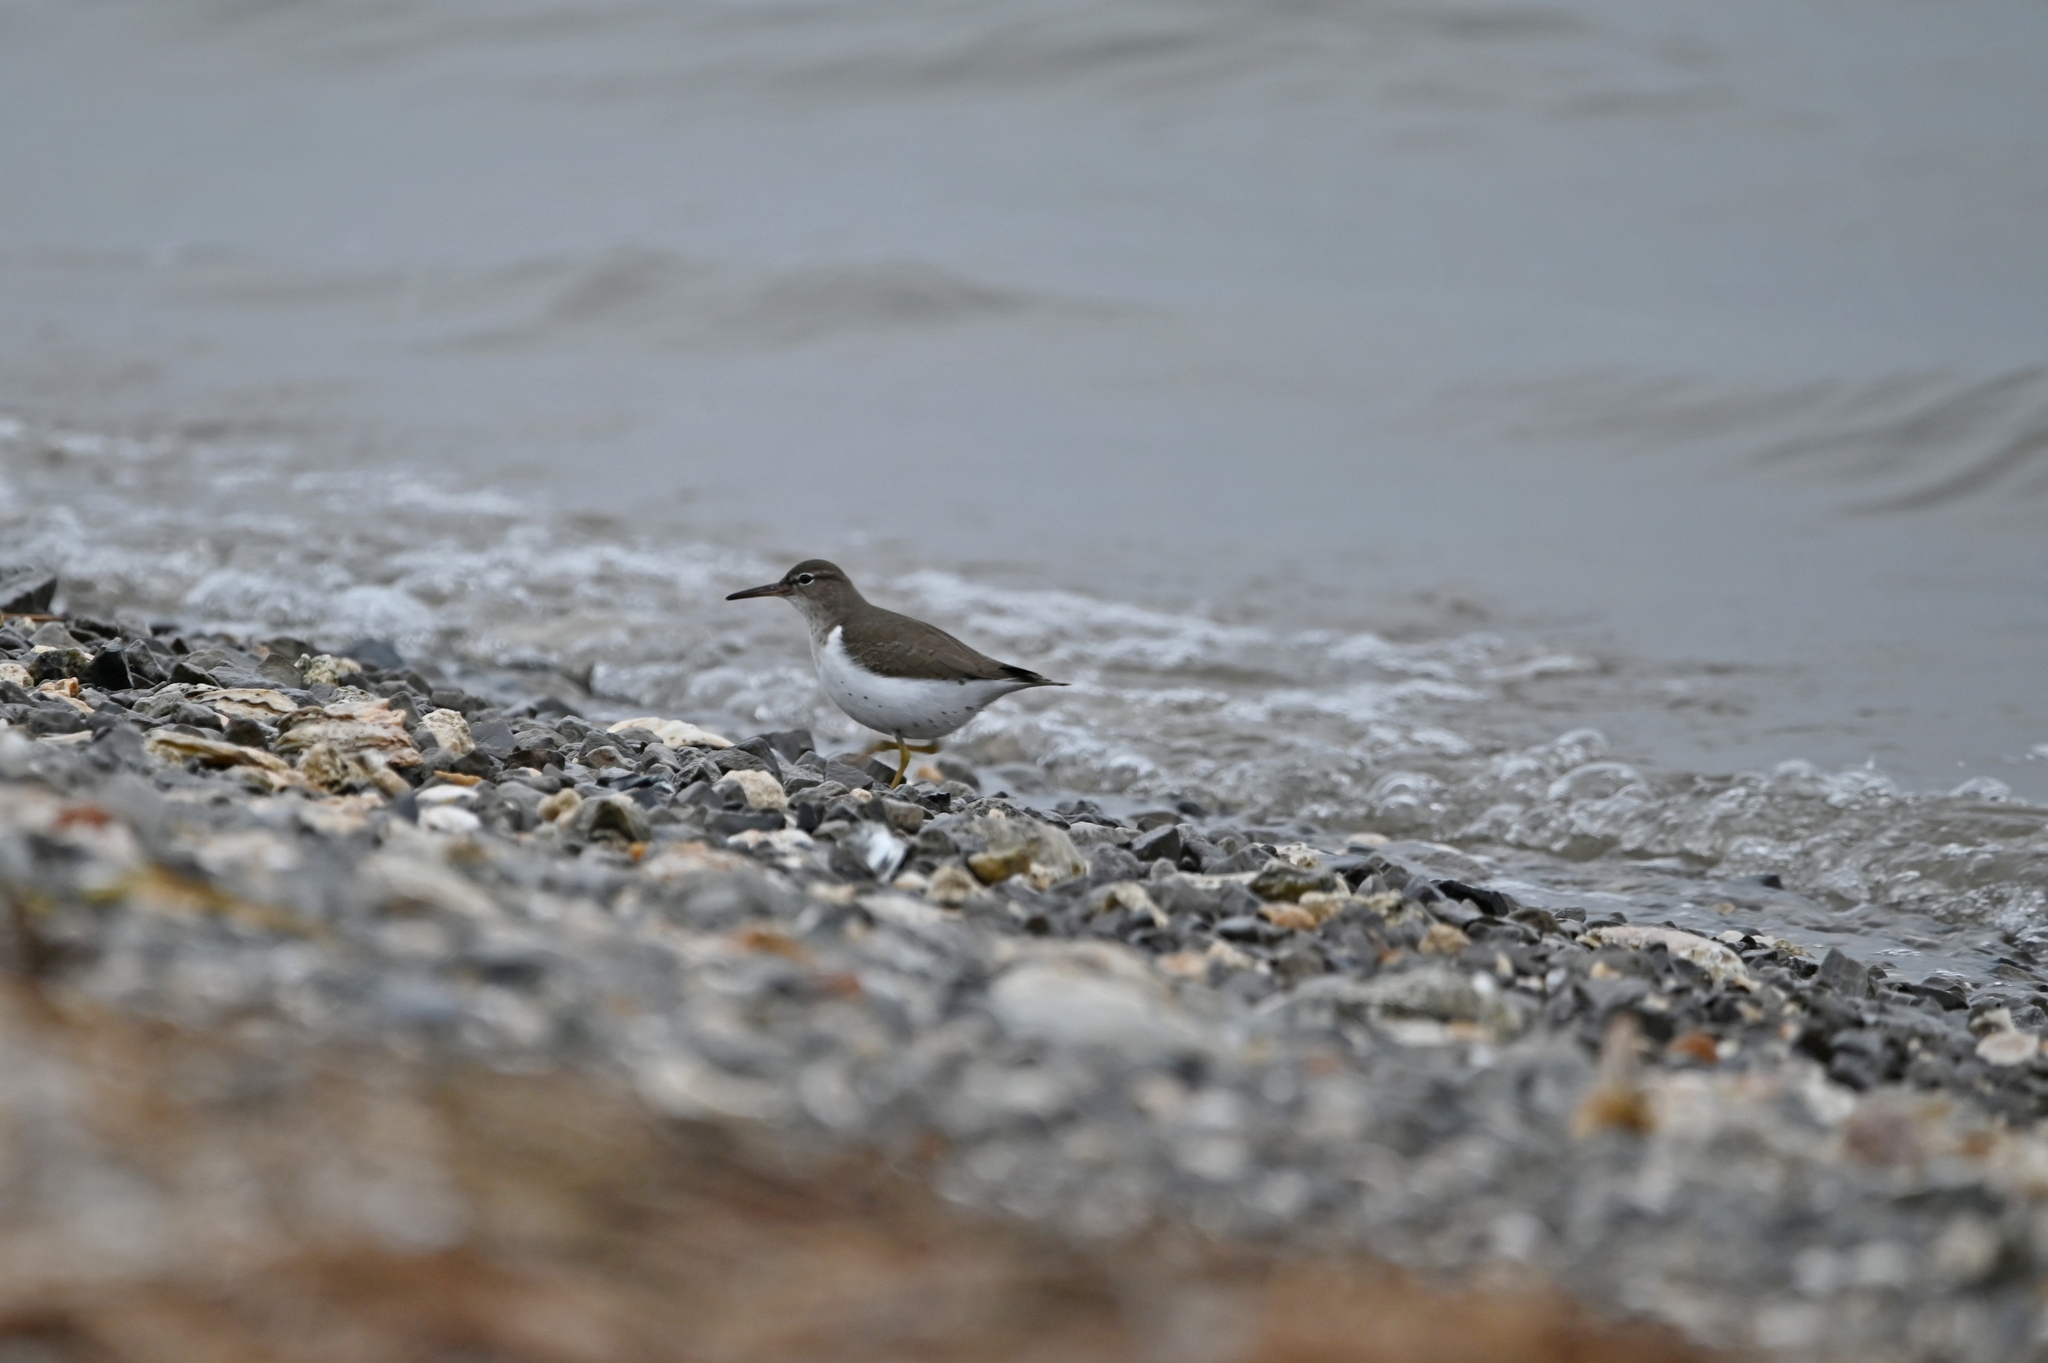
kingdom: Animalia
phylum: Chordata
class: Aves
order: Charadriiformes
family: Scolopacidae
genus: Actitis
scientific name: Actitis macularius
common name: Spotted sandpiper
